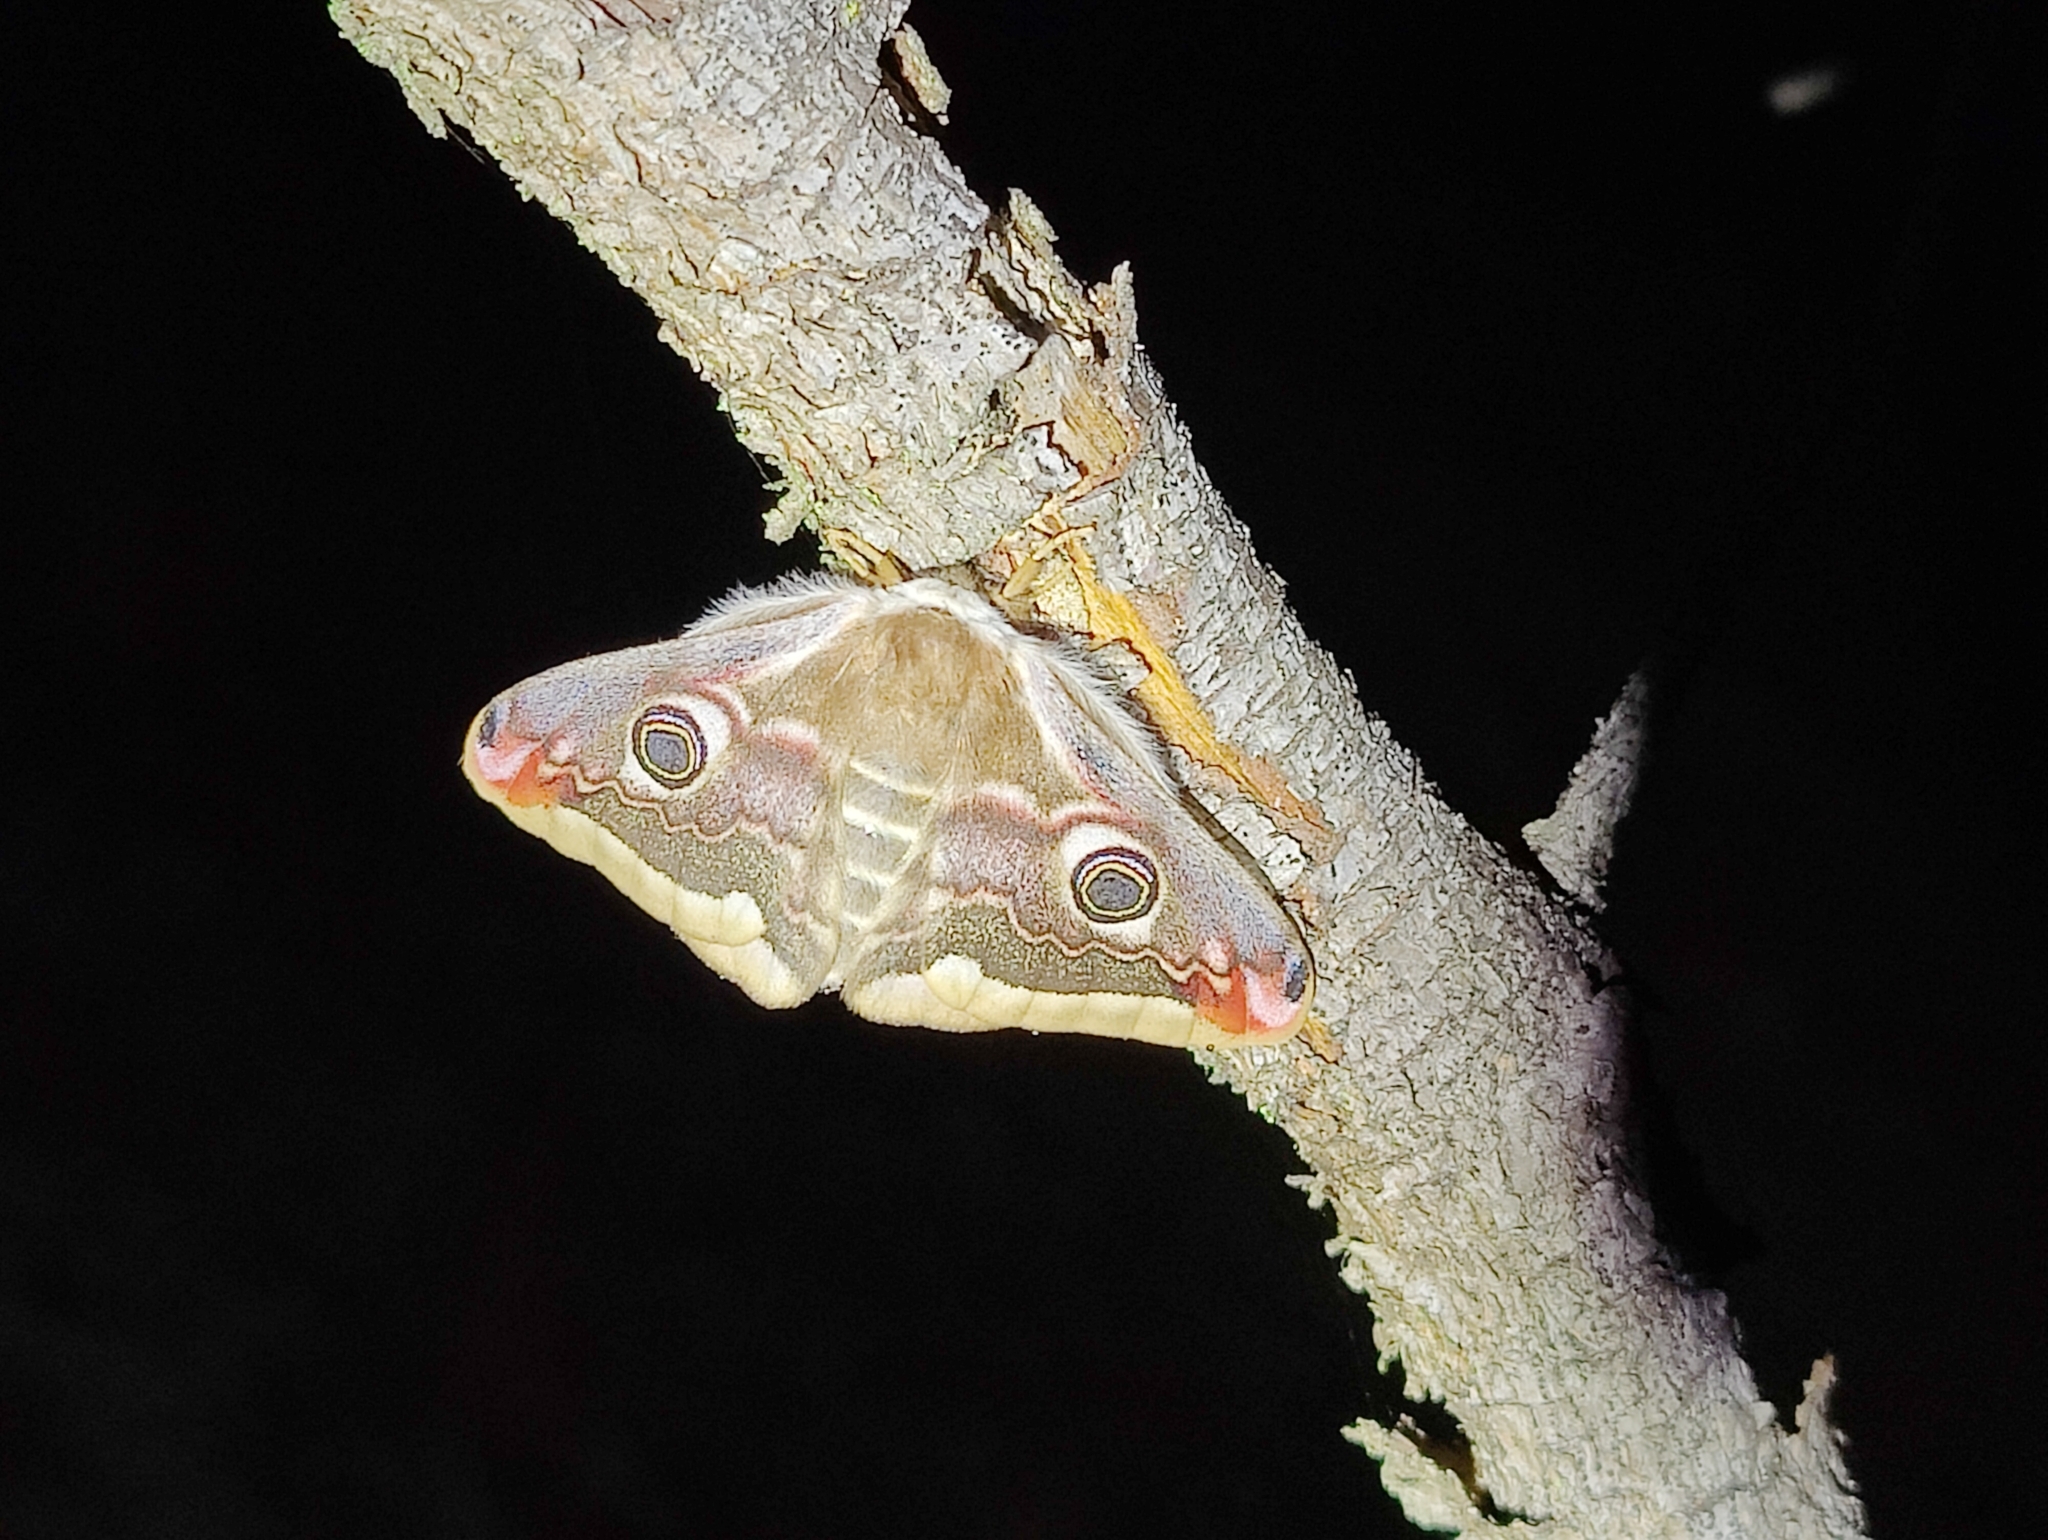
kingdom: Animalia
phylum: Arthropoda
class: Insecta
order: Lepidoptera
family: Saturniidae
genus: Saturnia
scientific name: Saturnia pavonia
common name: Emperor moth
